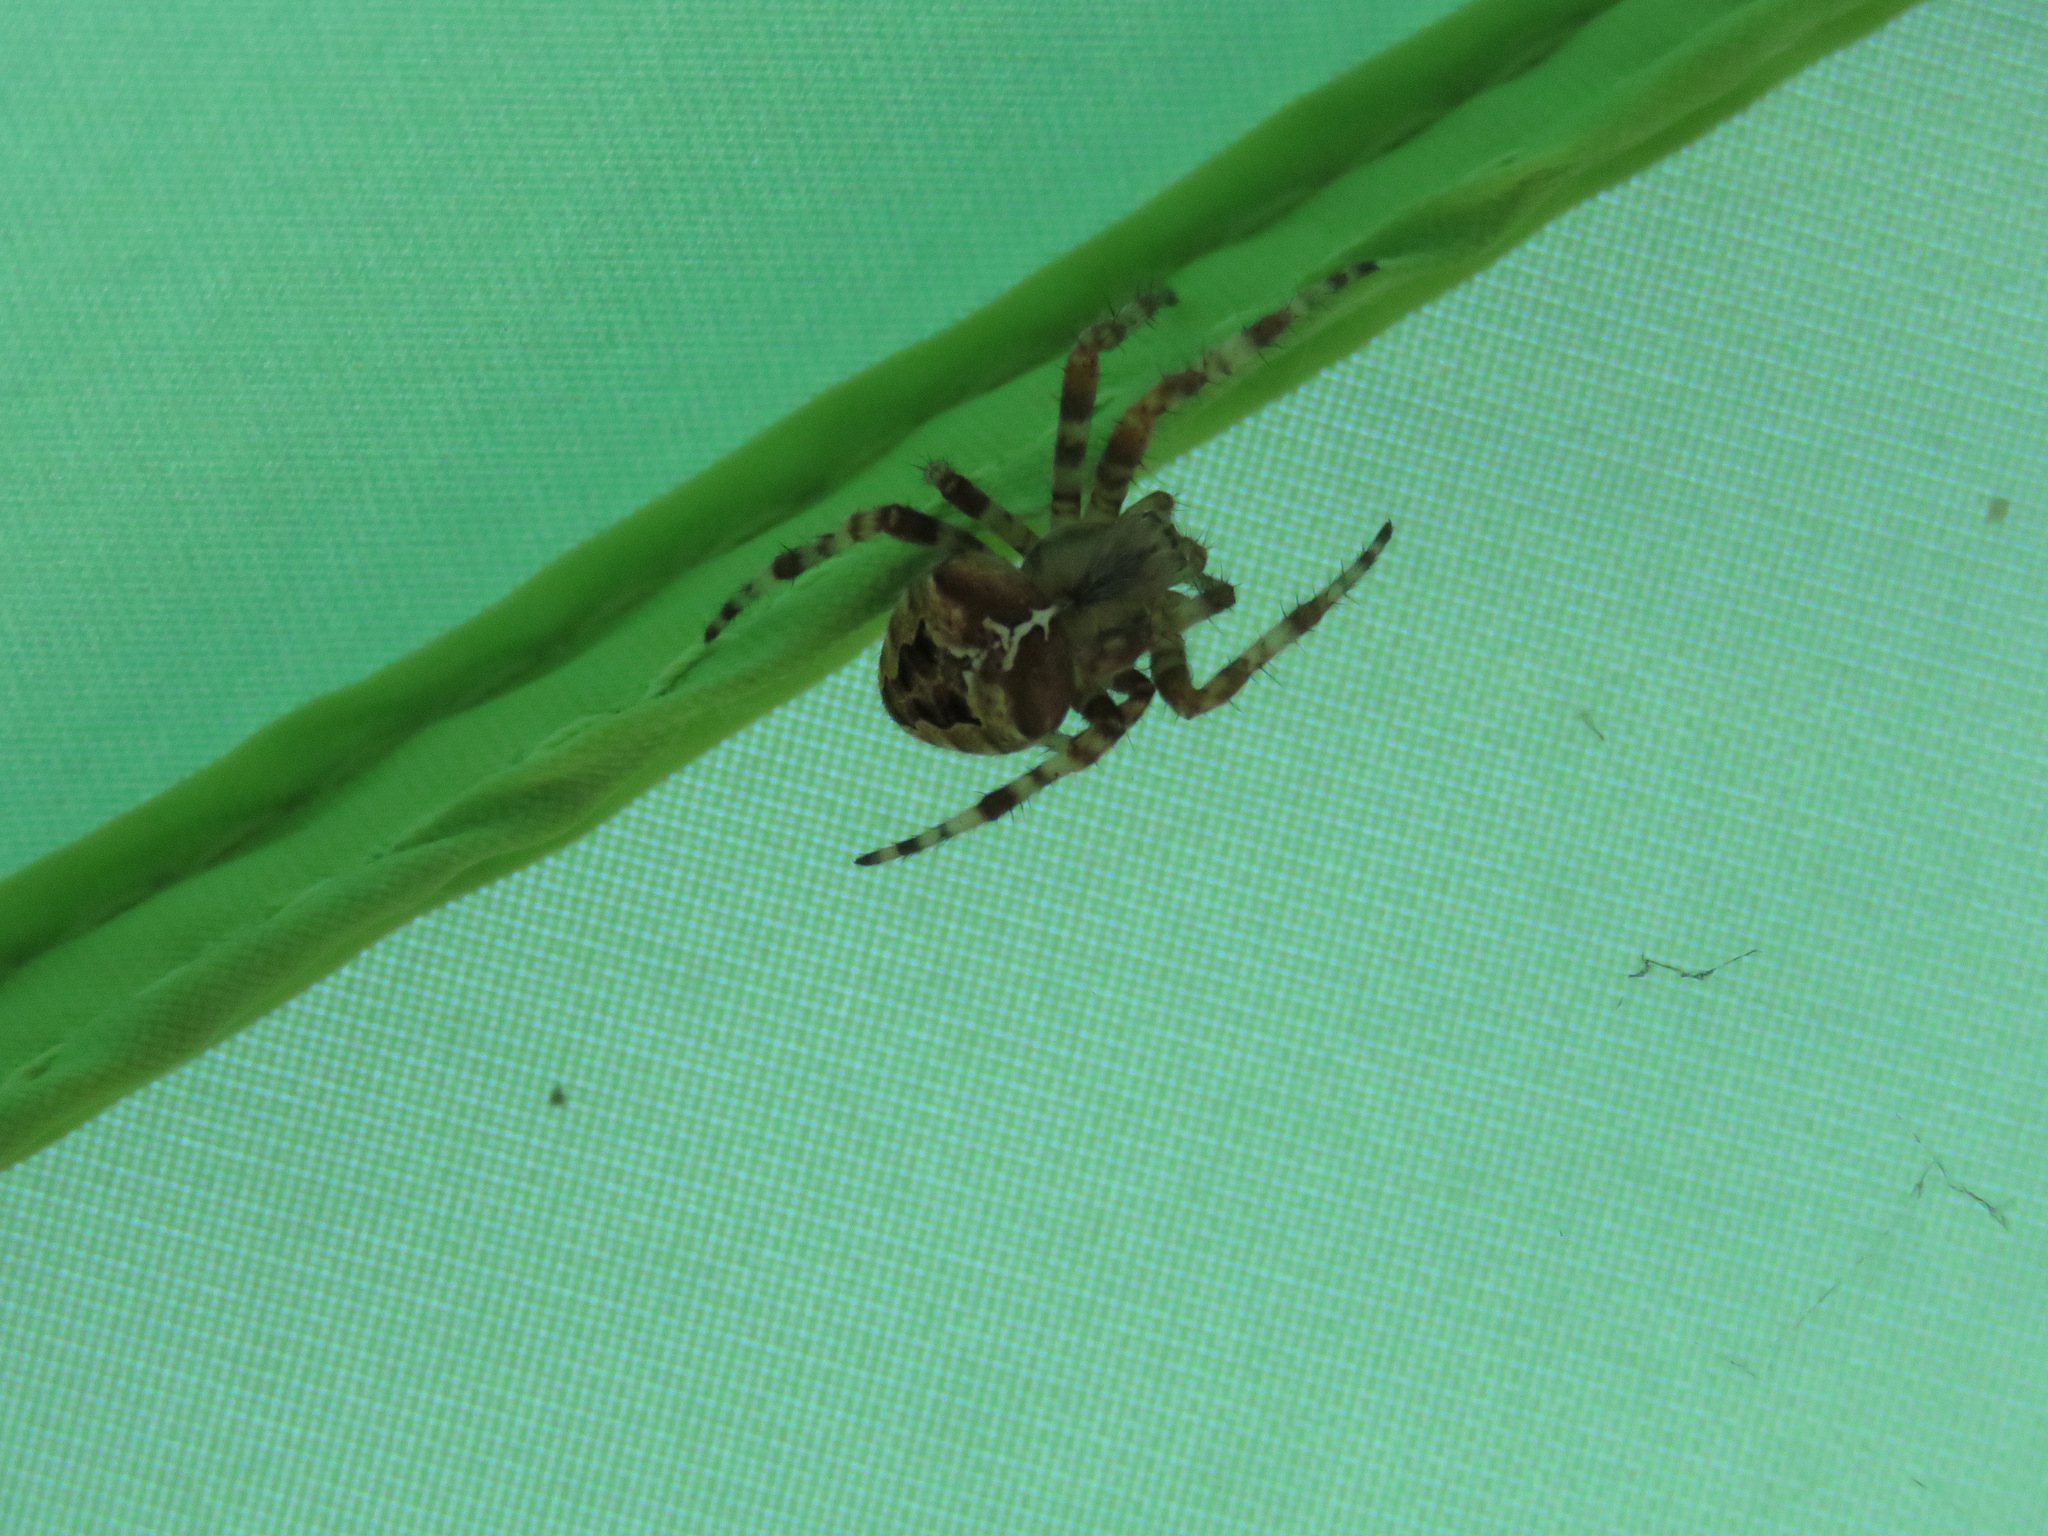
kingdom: Animalia
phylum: Arthropoda
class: Arachnida
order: Araneae
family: Araneidae
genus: Araneus
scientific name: Araneus gemmoides
